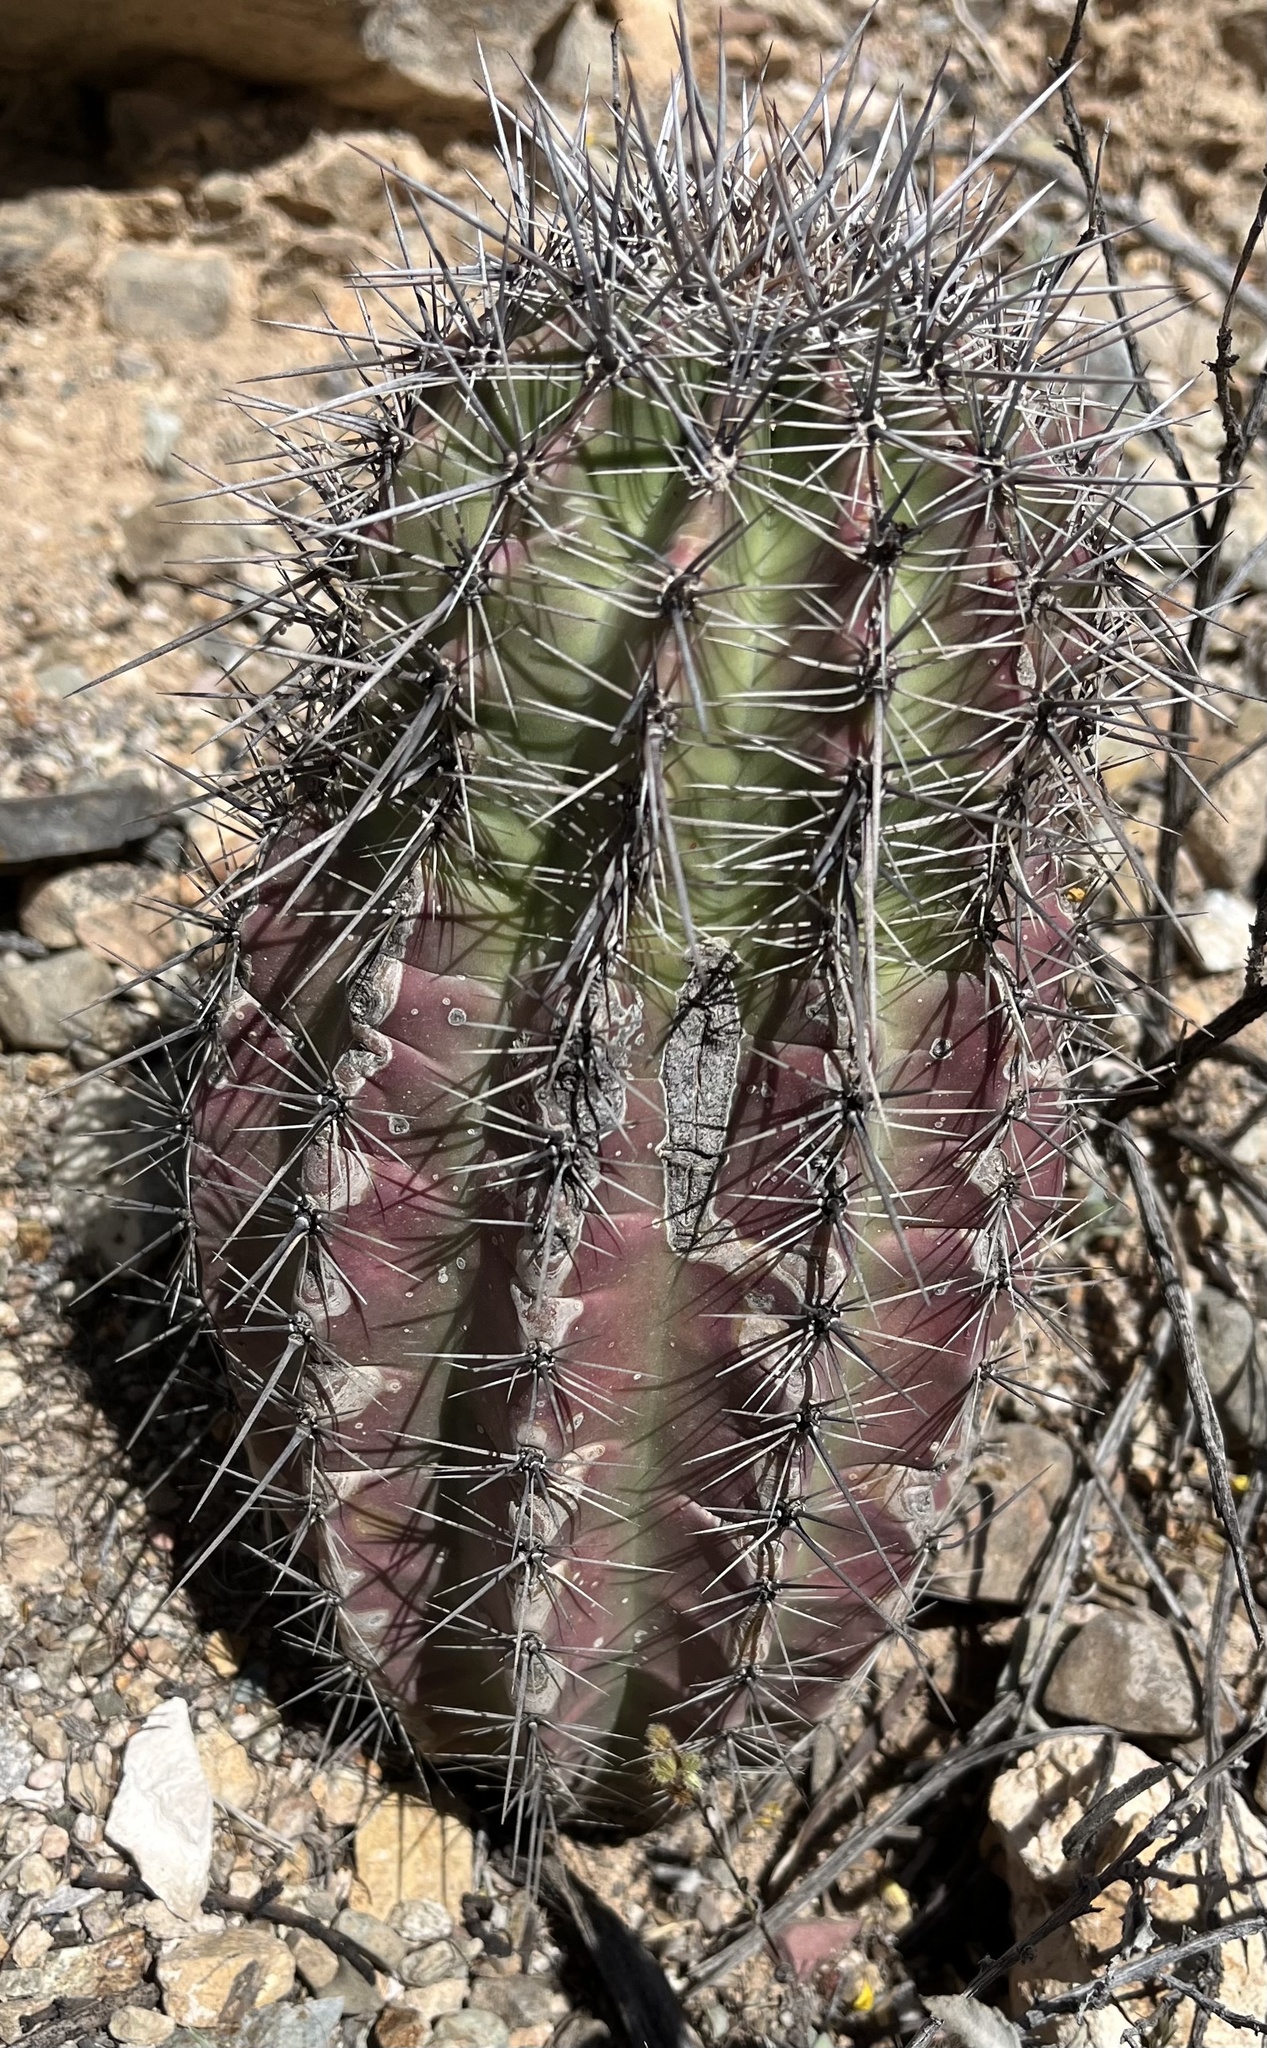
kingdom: Plantae
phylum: Tracheophyta
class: Magnoliopsida
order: Caryophyllales
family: Cactaceae
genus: Carnegiea
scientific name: Carnegiea gigantea
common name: Saguaro
